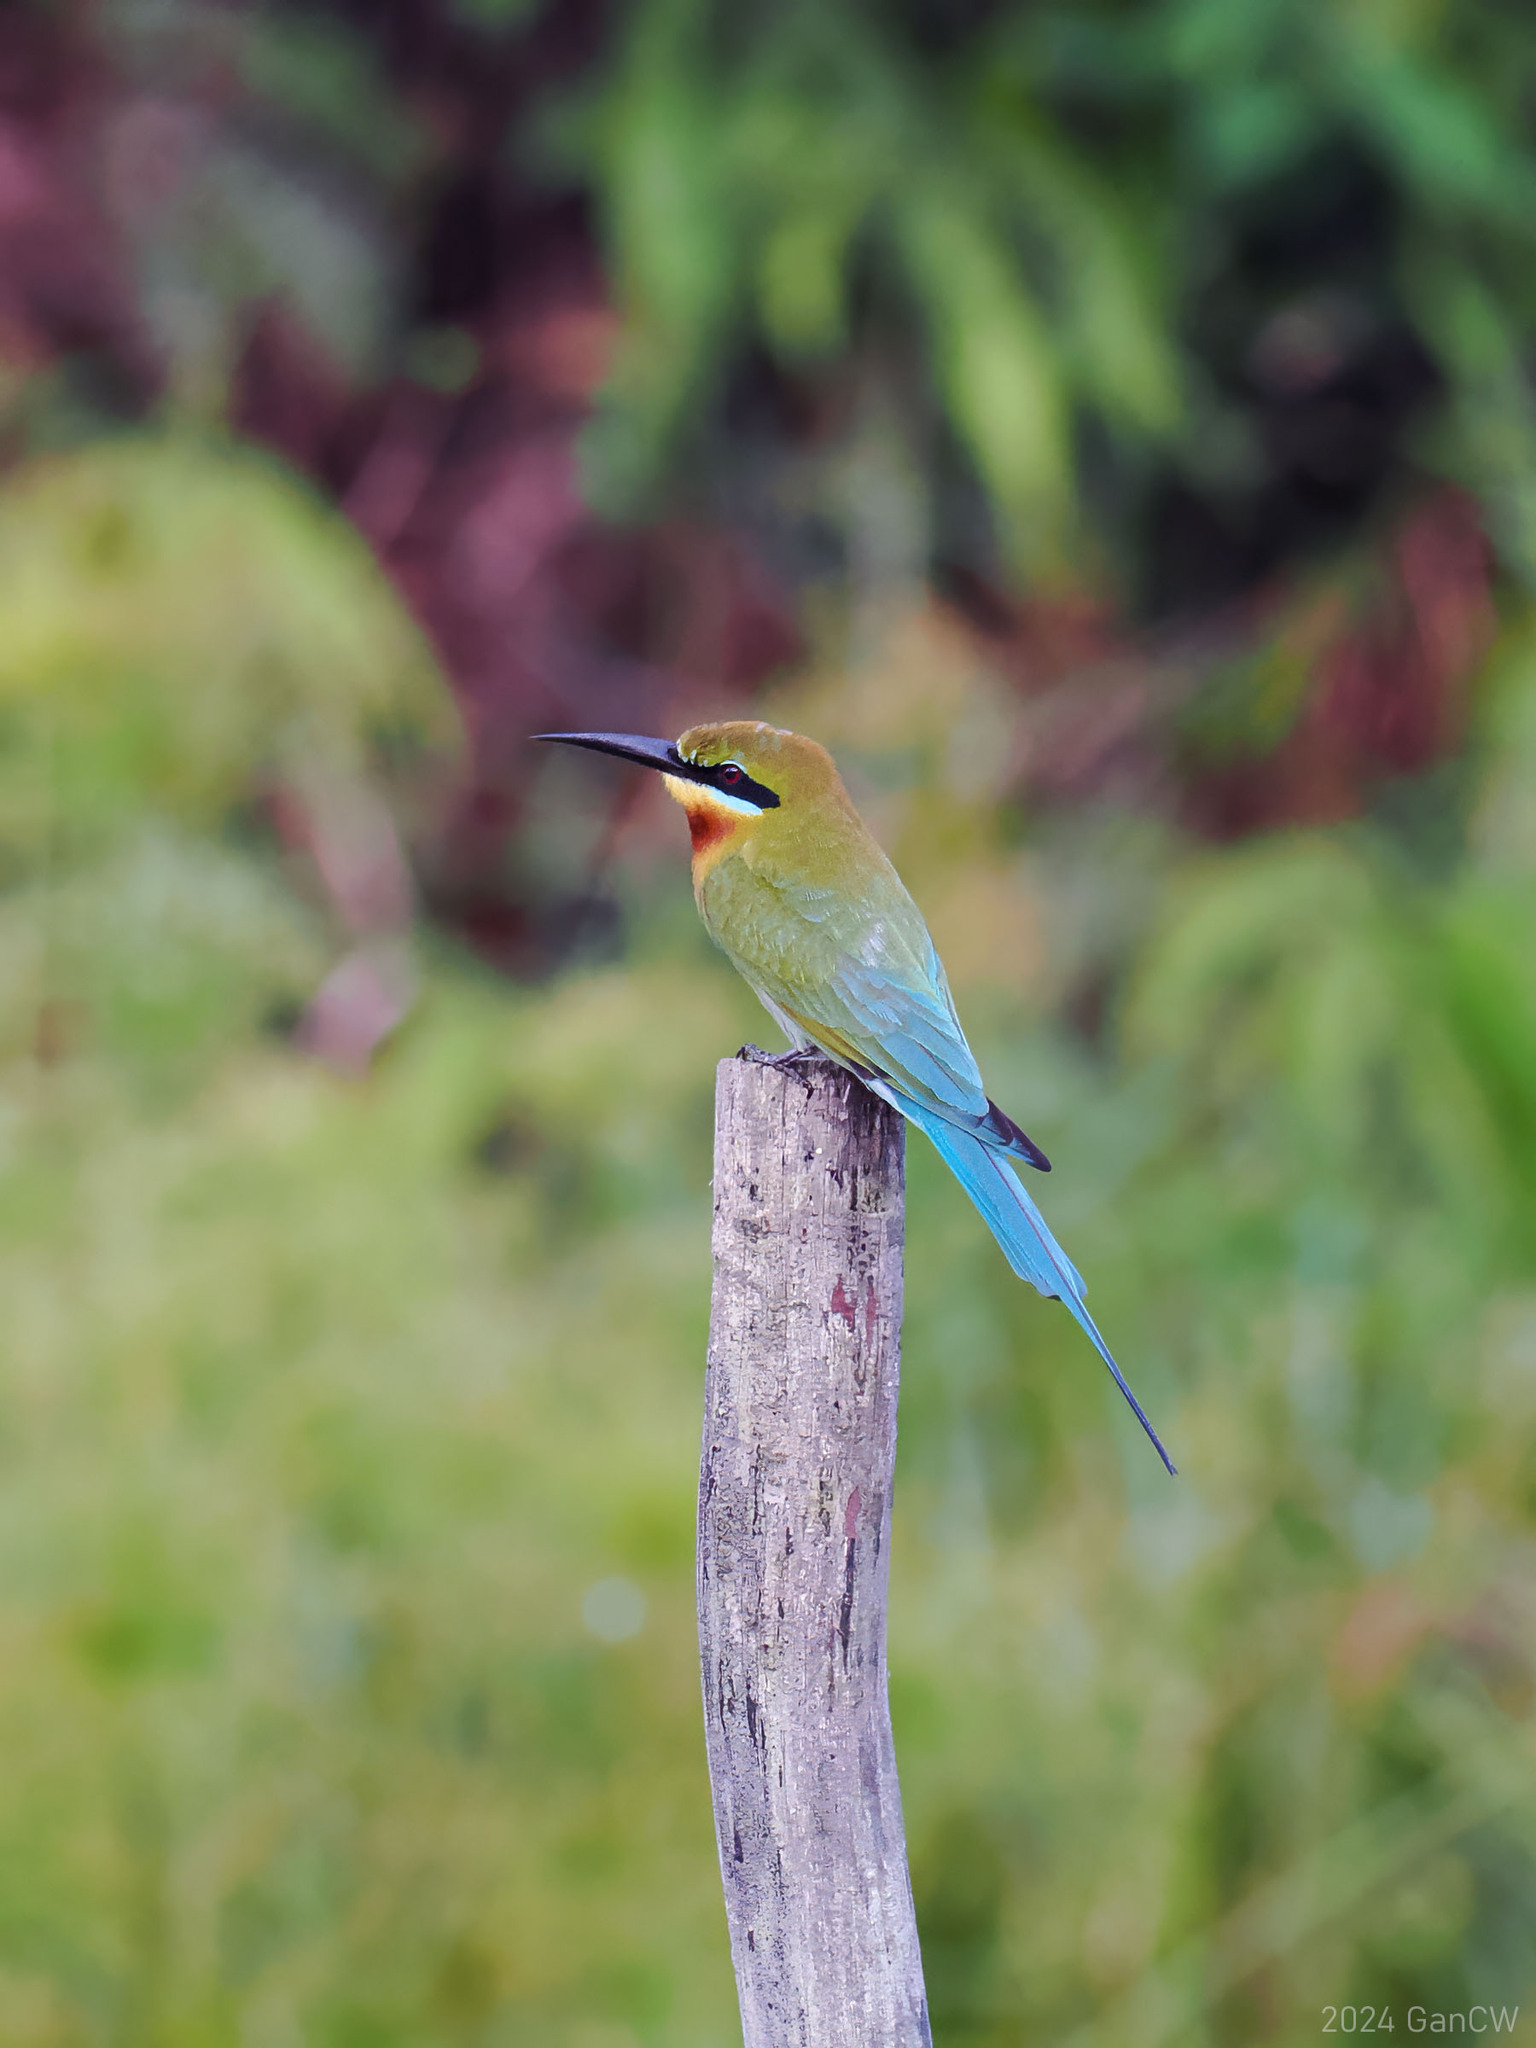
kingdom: Animalia
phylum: Chordata
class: Aves
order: Coraciiformes
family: Meropidae
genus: Merops
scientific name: Merops philippinus
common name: Blue-tailed bee-eater
